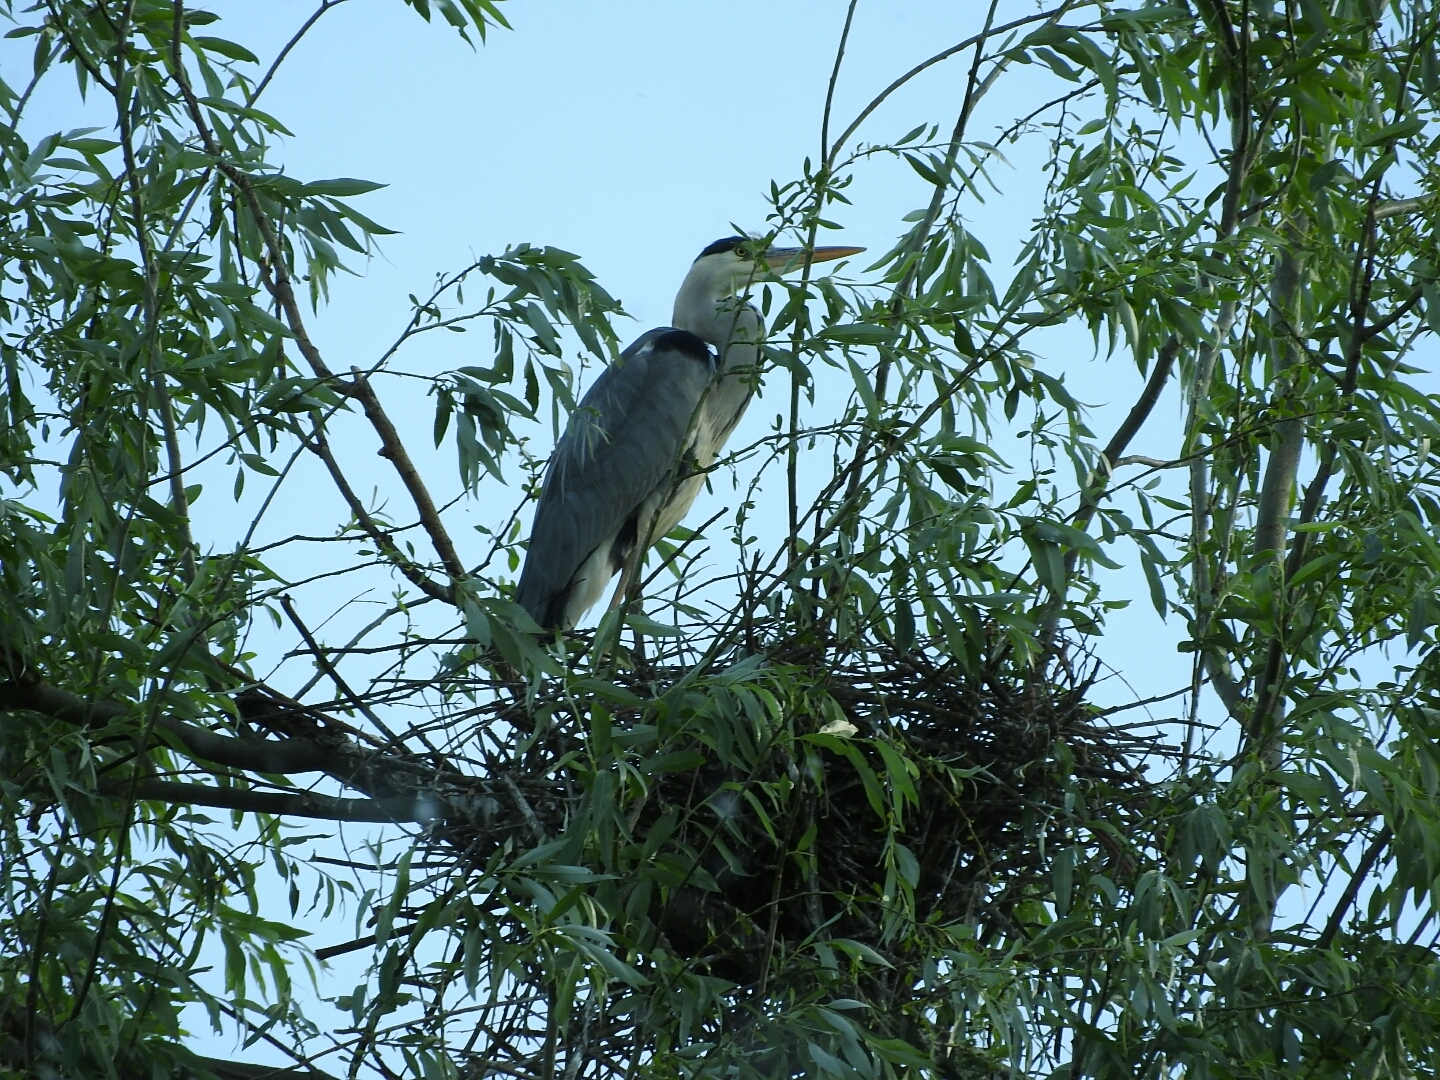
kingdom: Animalia
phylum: Chordata
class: Aves
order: Pelecaniformes
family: Ardeidae
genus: Ardea
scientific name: Ardea cinerea
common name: Grey heron
